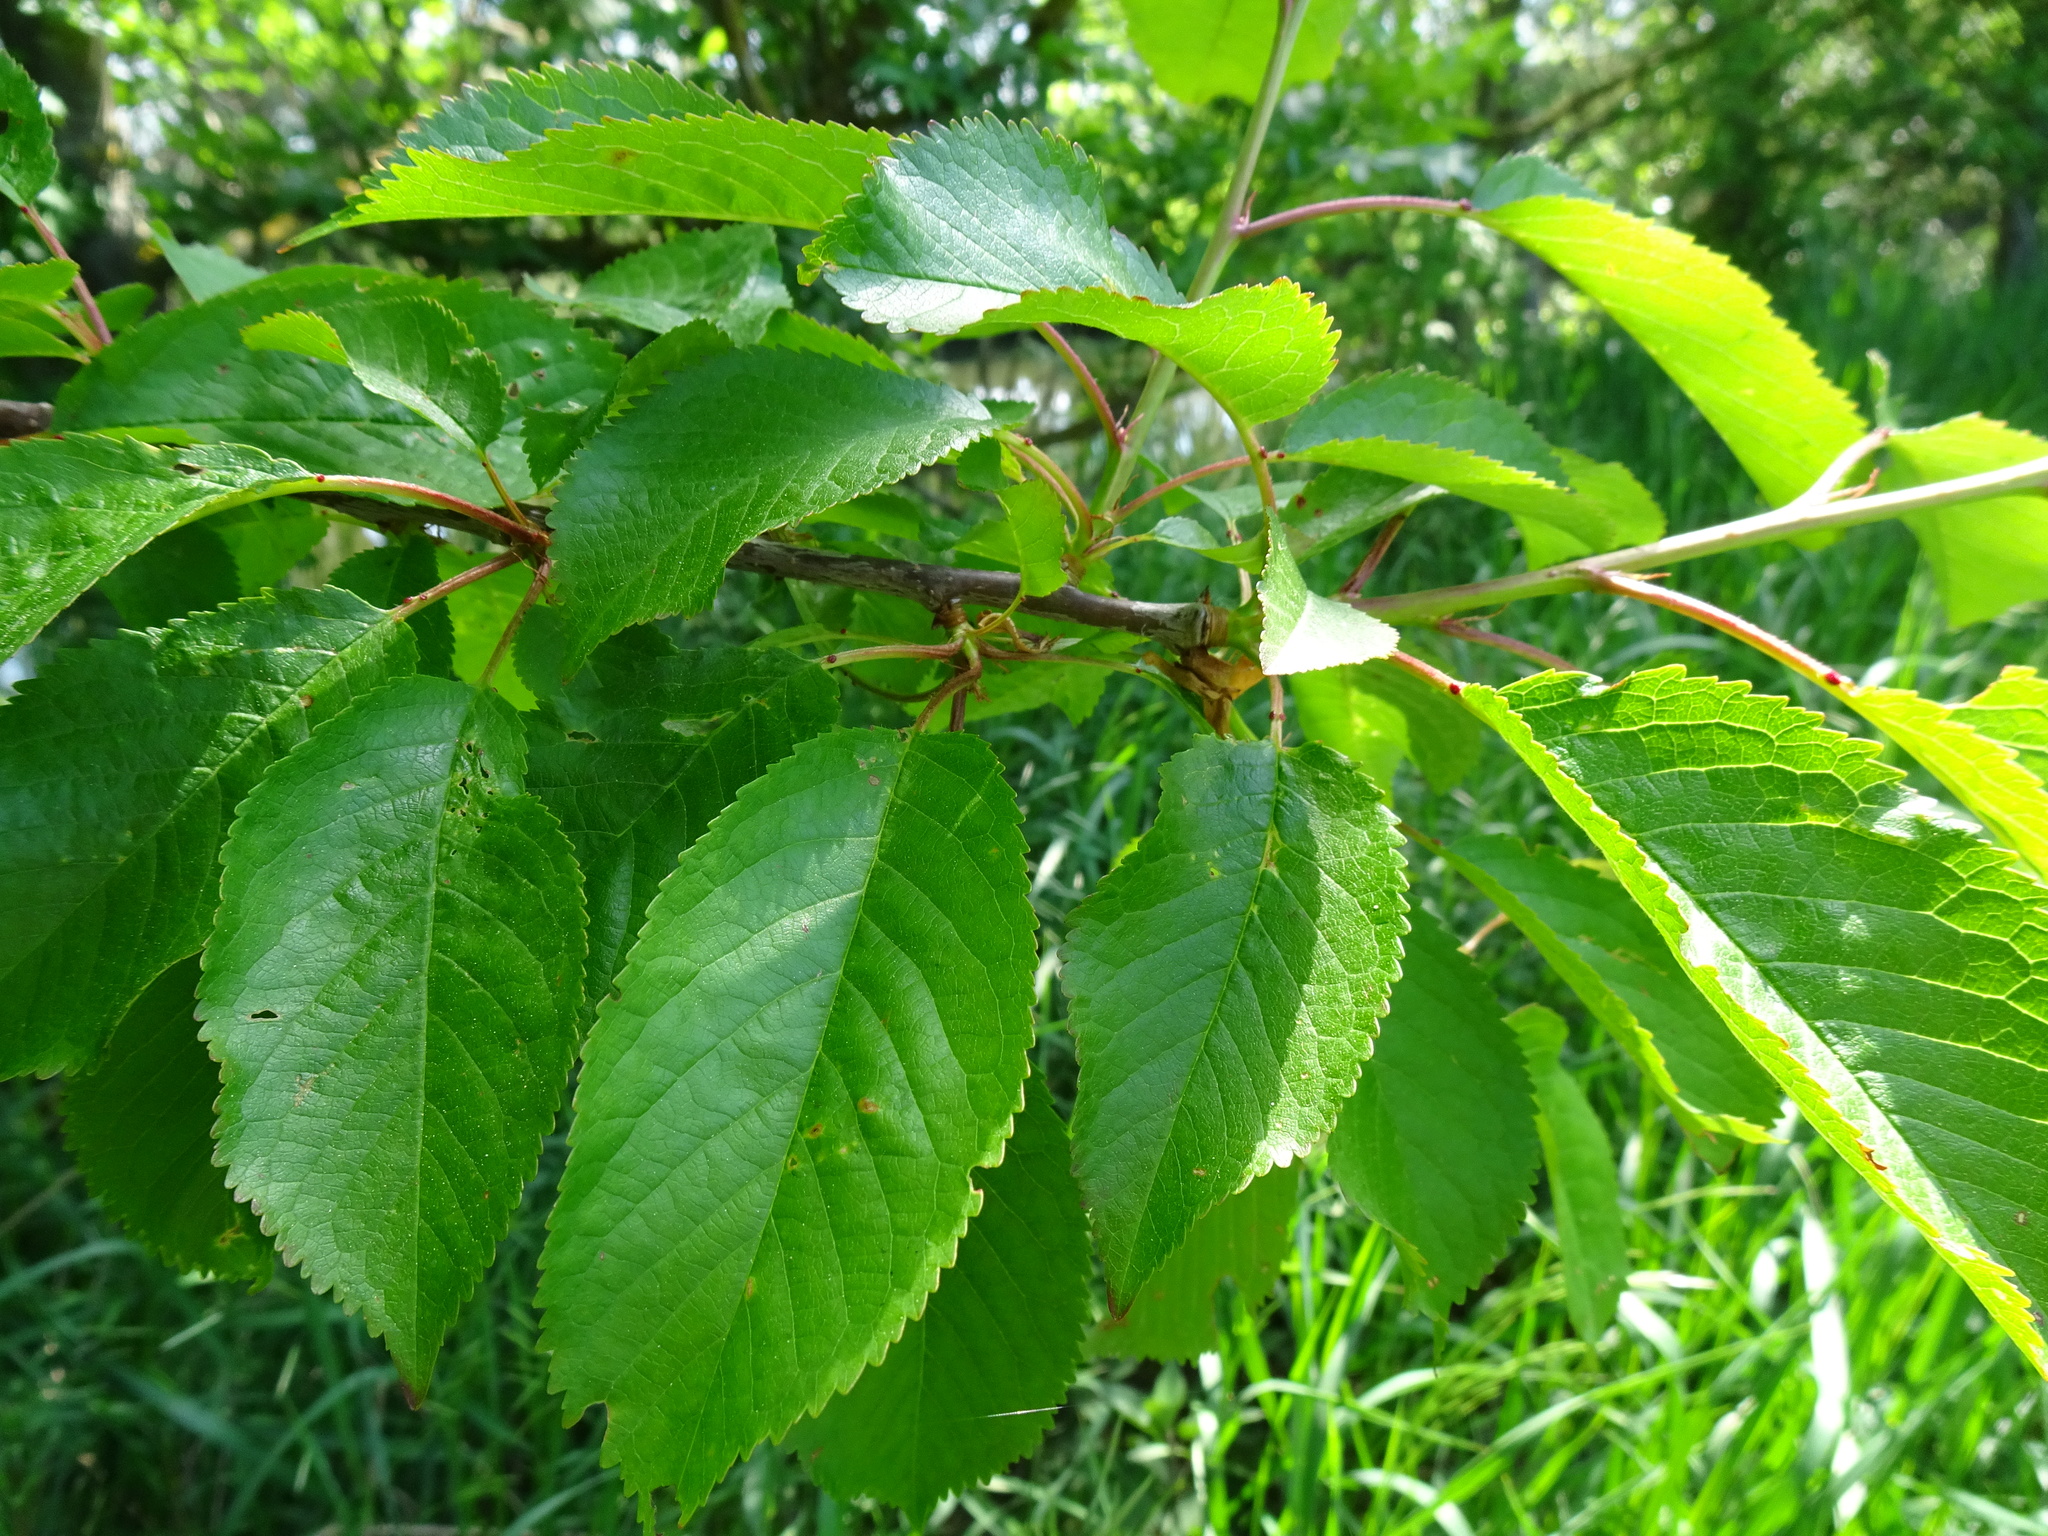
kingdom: Plantae
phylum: Tracheophyta
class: Magnoliopsida
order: Rosales
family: Rosaceae
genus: Prunus
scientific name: Prunus avium
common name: Sweet cherry
